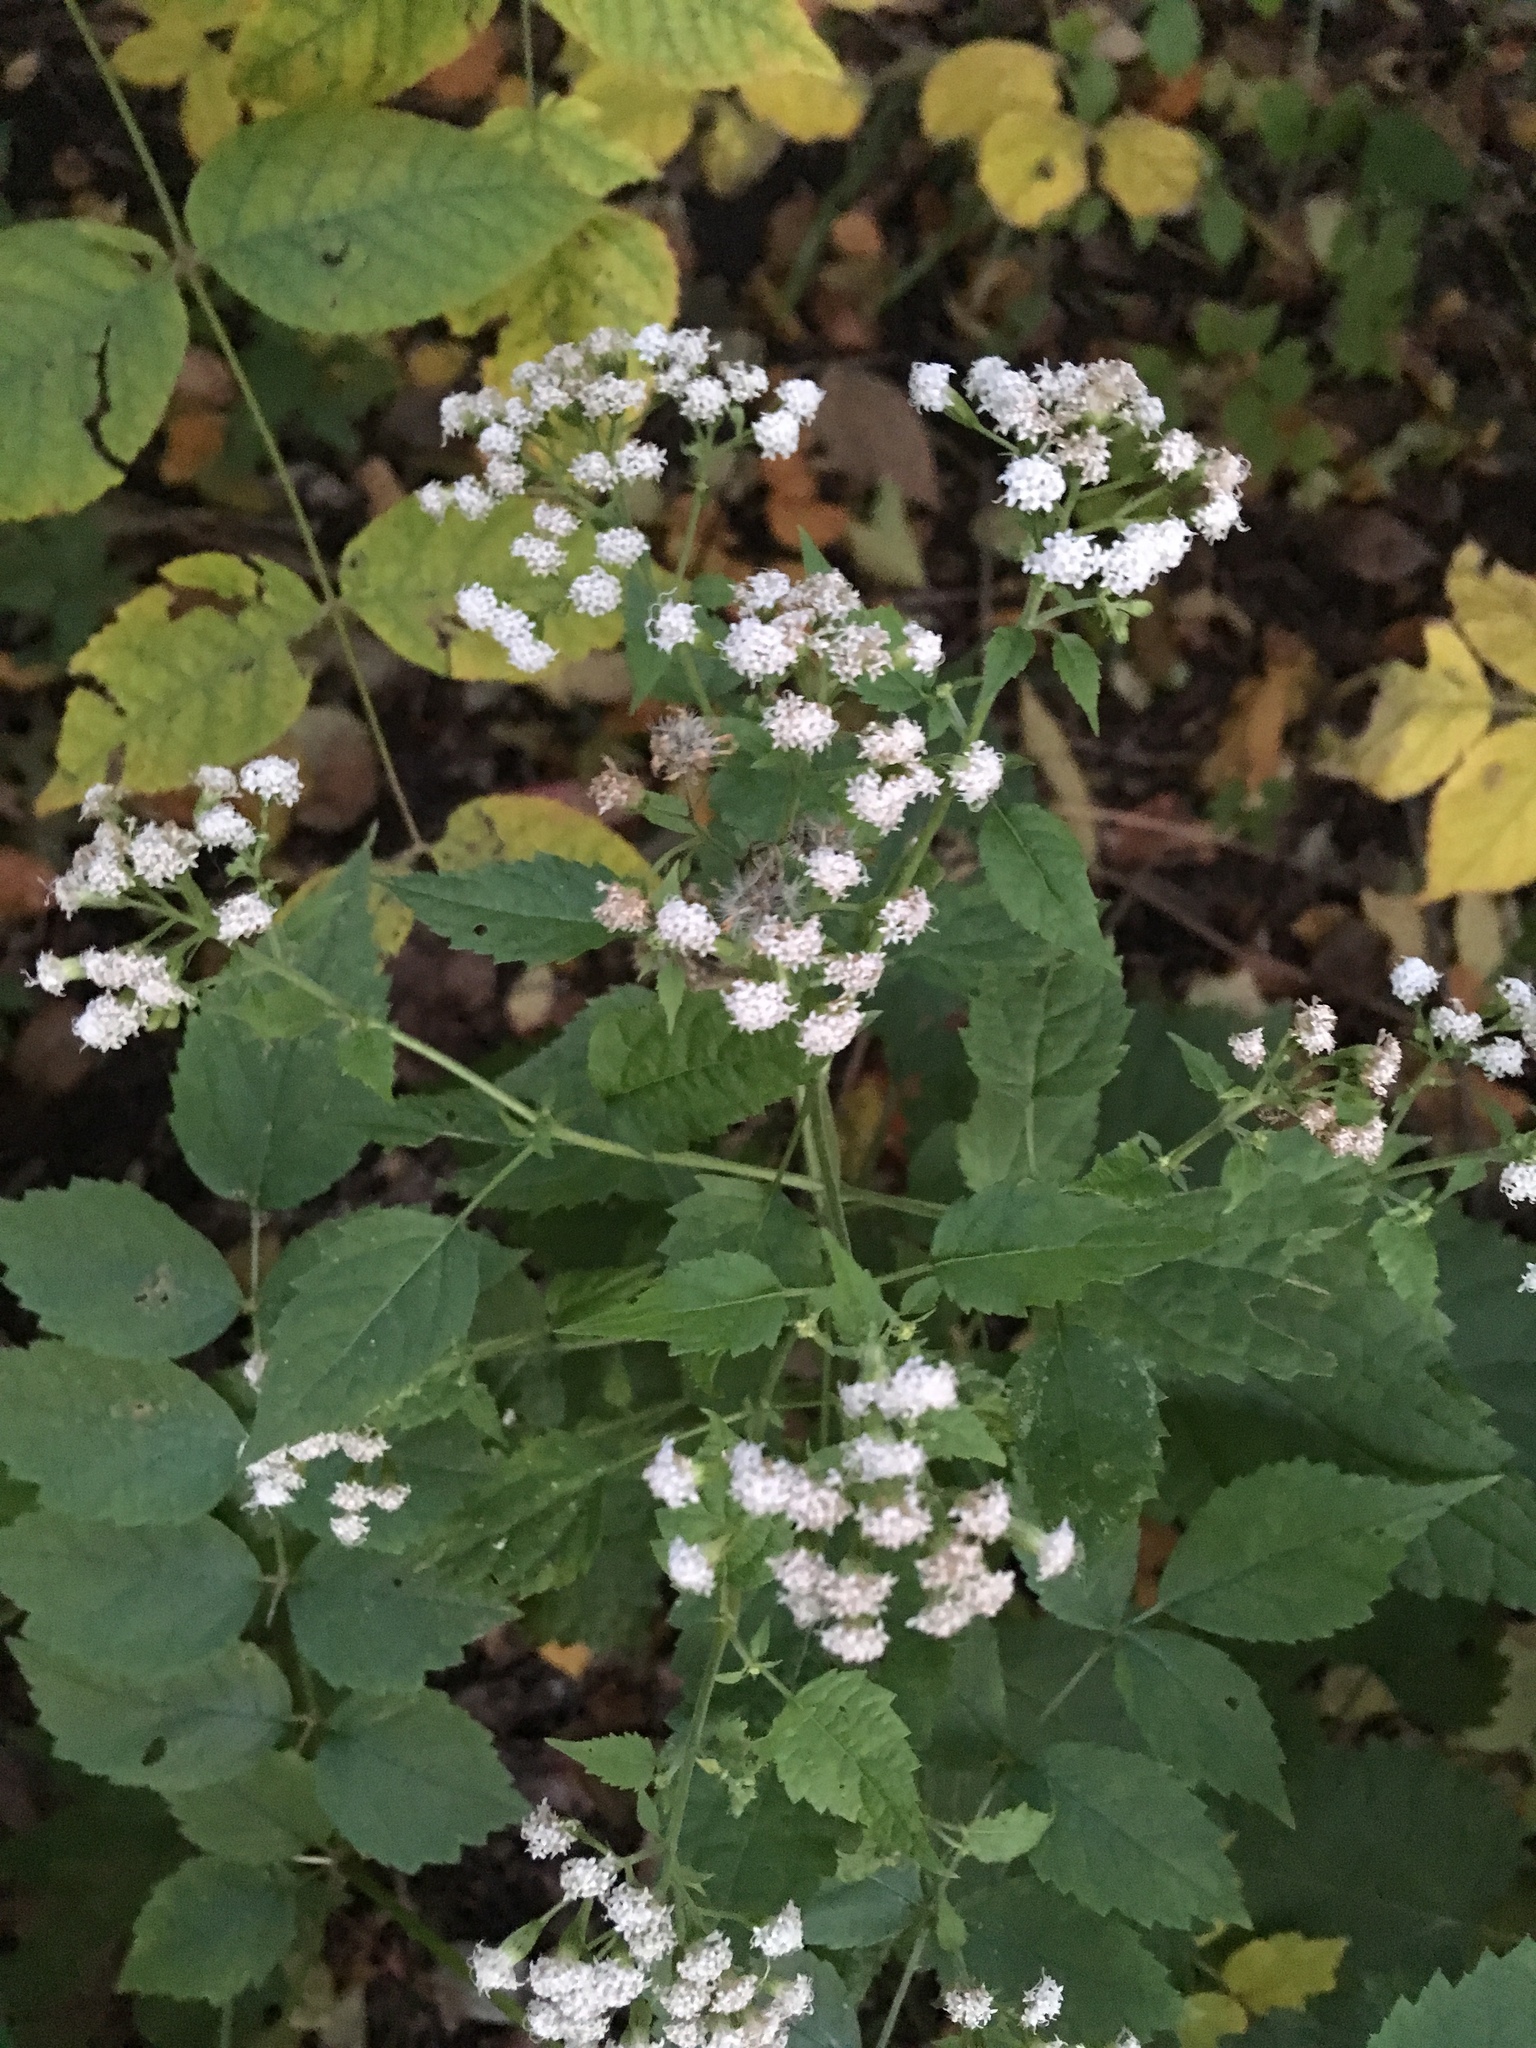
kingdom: Plantae
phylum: Tracheophyta
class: Magnoliopsida
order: Asterales
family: Asteraceae
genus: Ageratina
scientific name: Ageratina altissima
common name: White snakeroot
